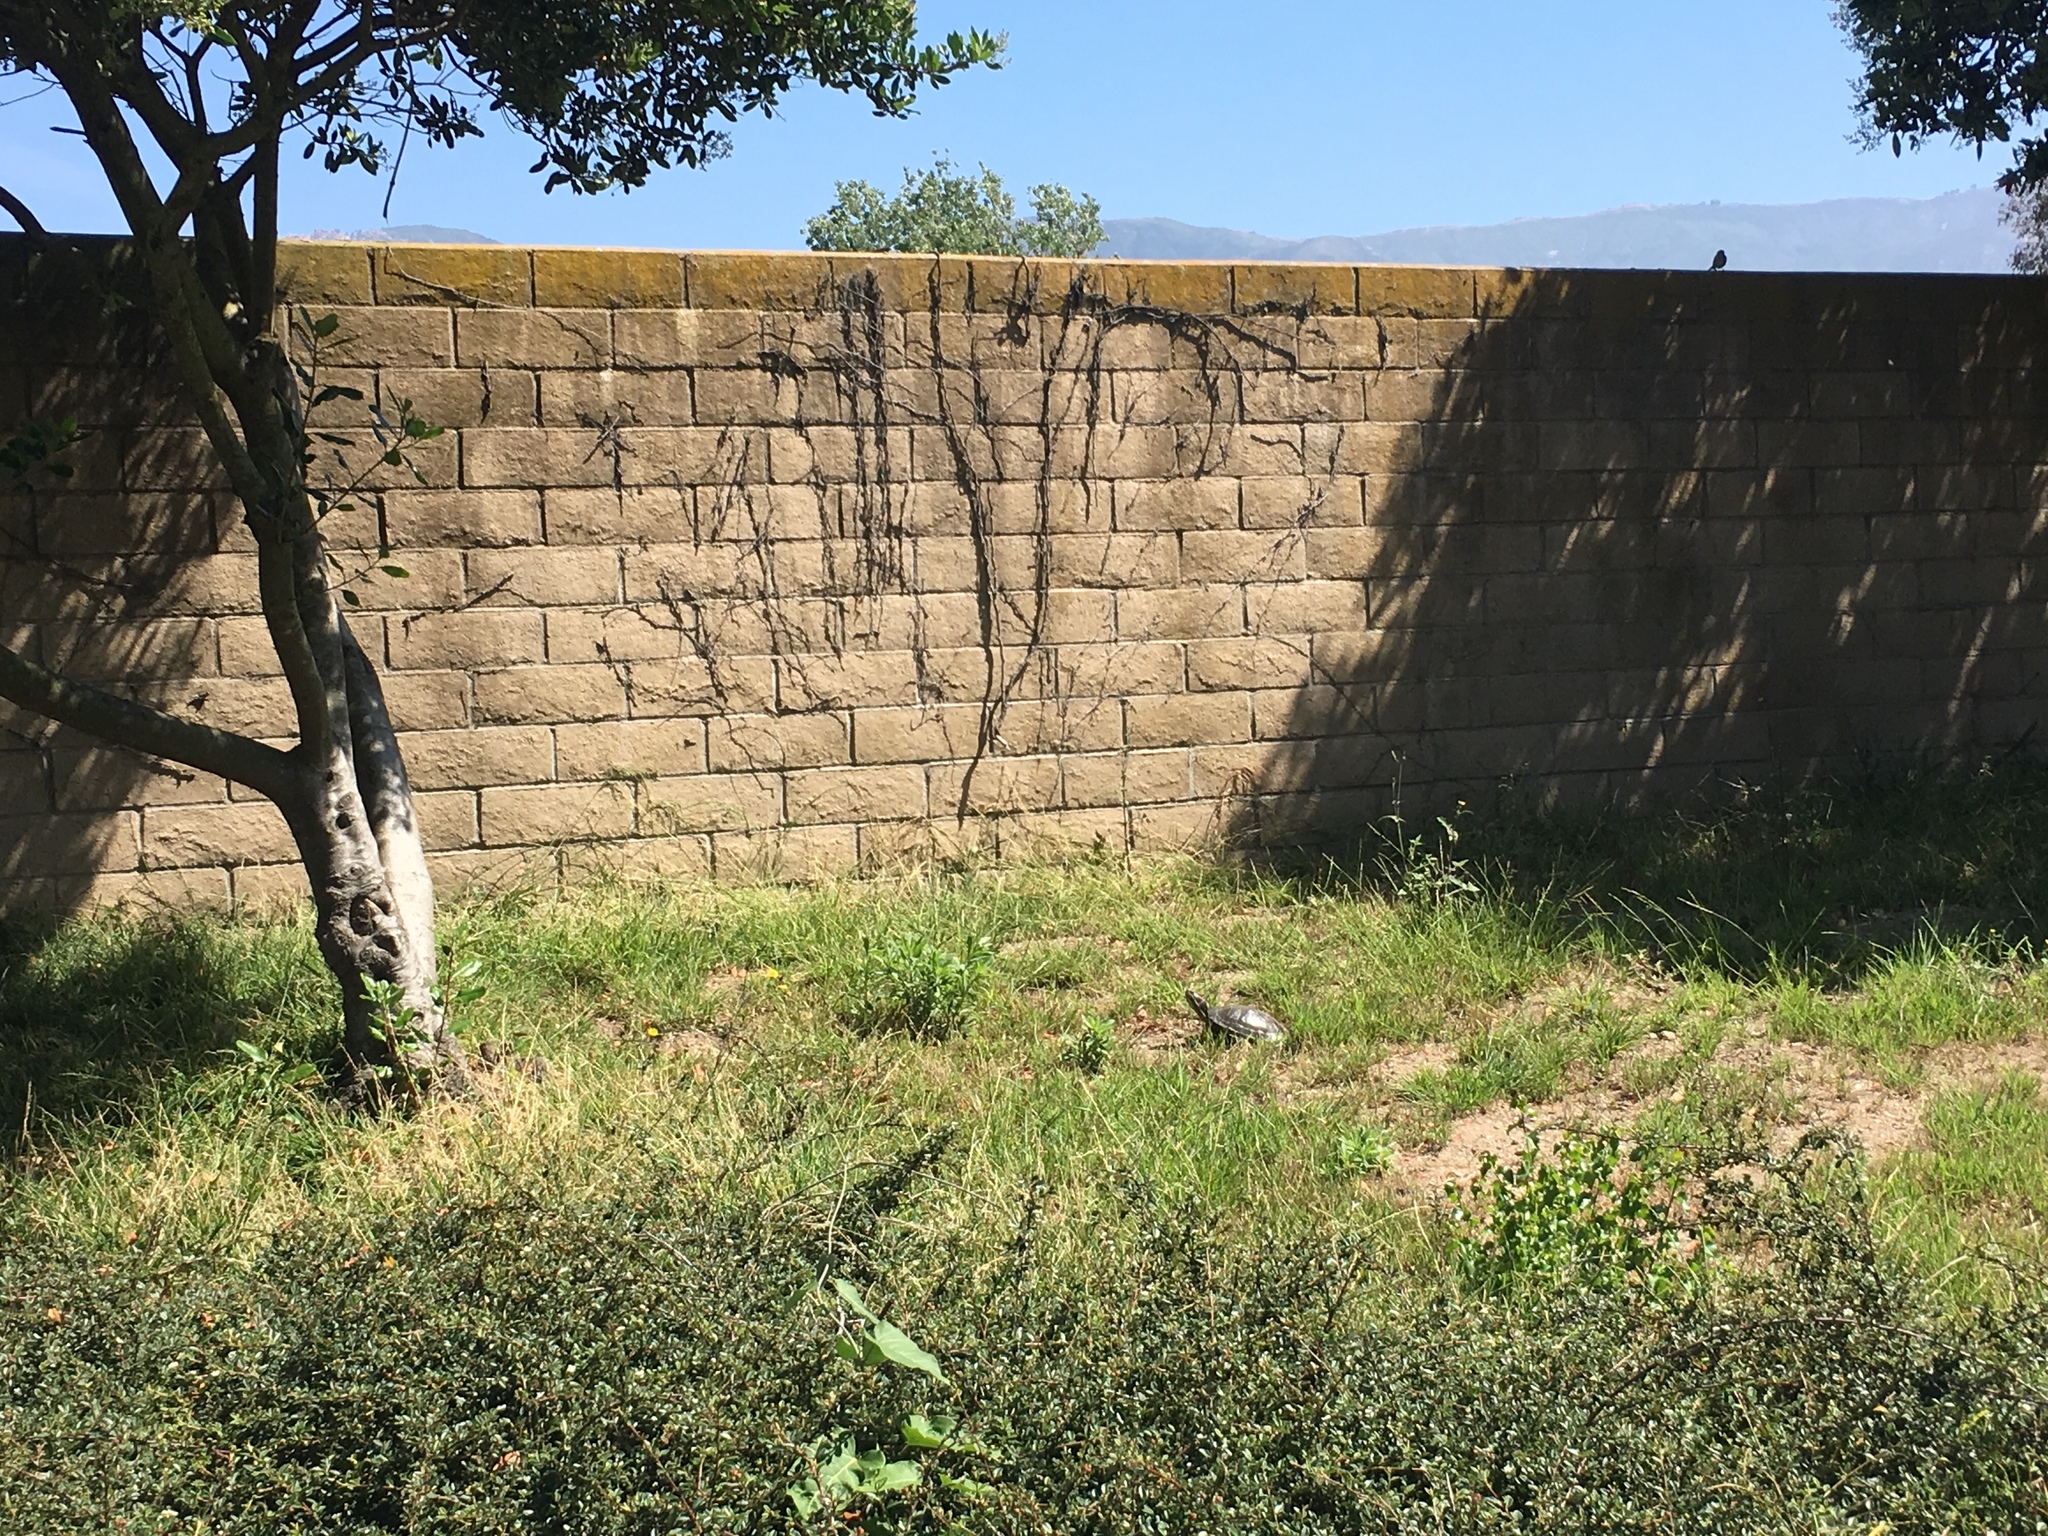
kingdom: Animalia
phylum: Chordata
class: Testudines
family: Emydidae
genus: Trachemys
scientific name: Trachemys scripta
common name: Slider
